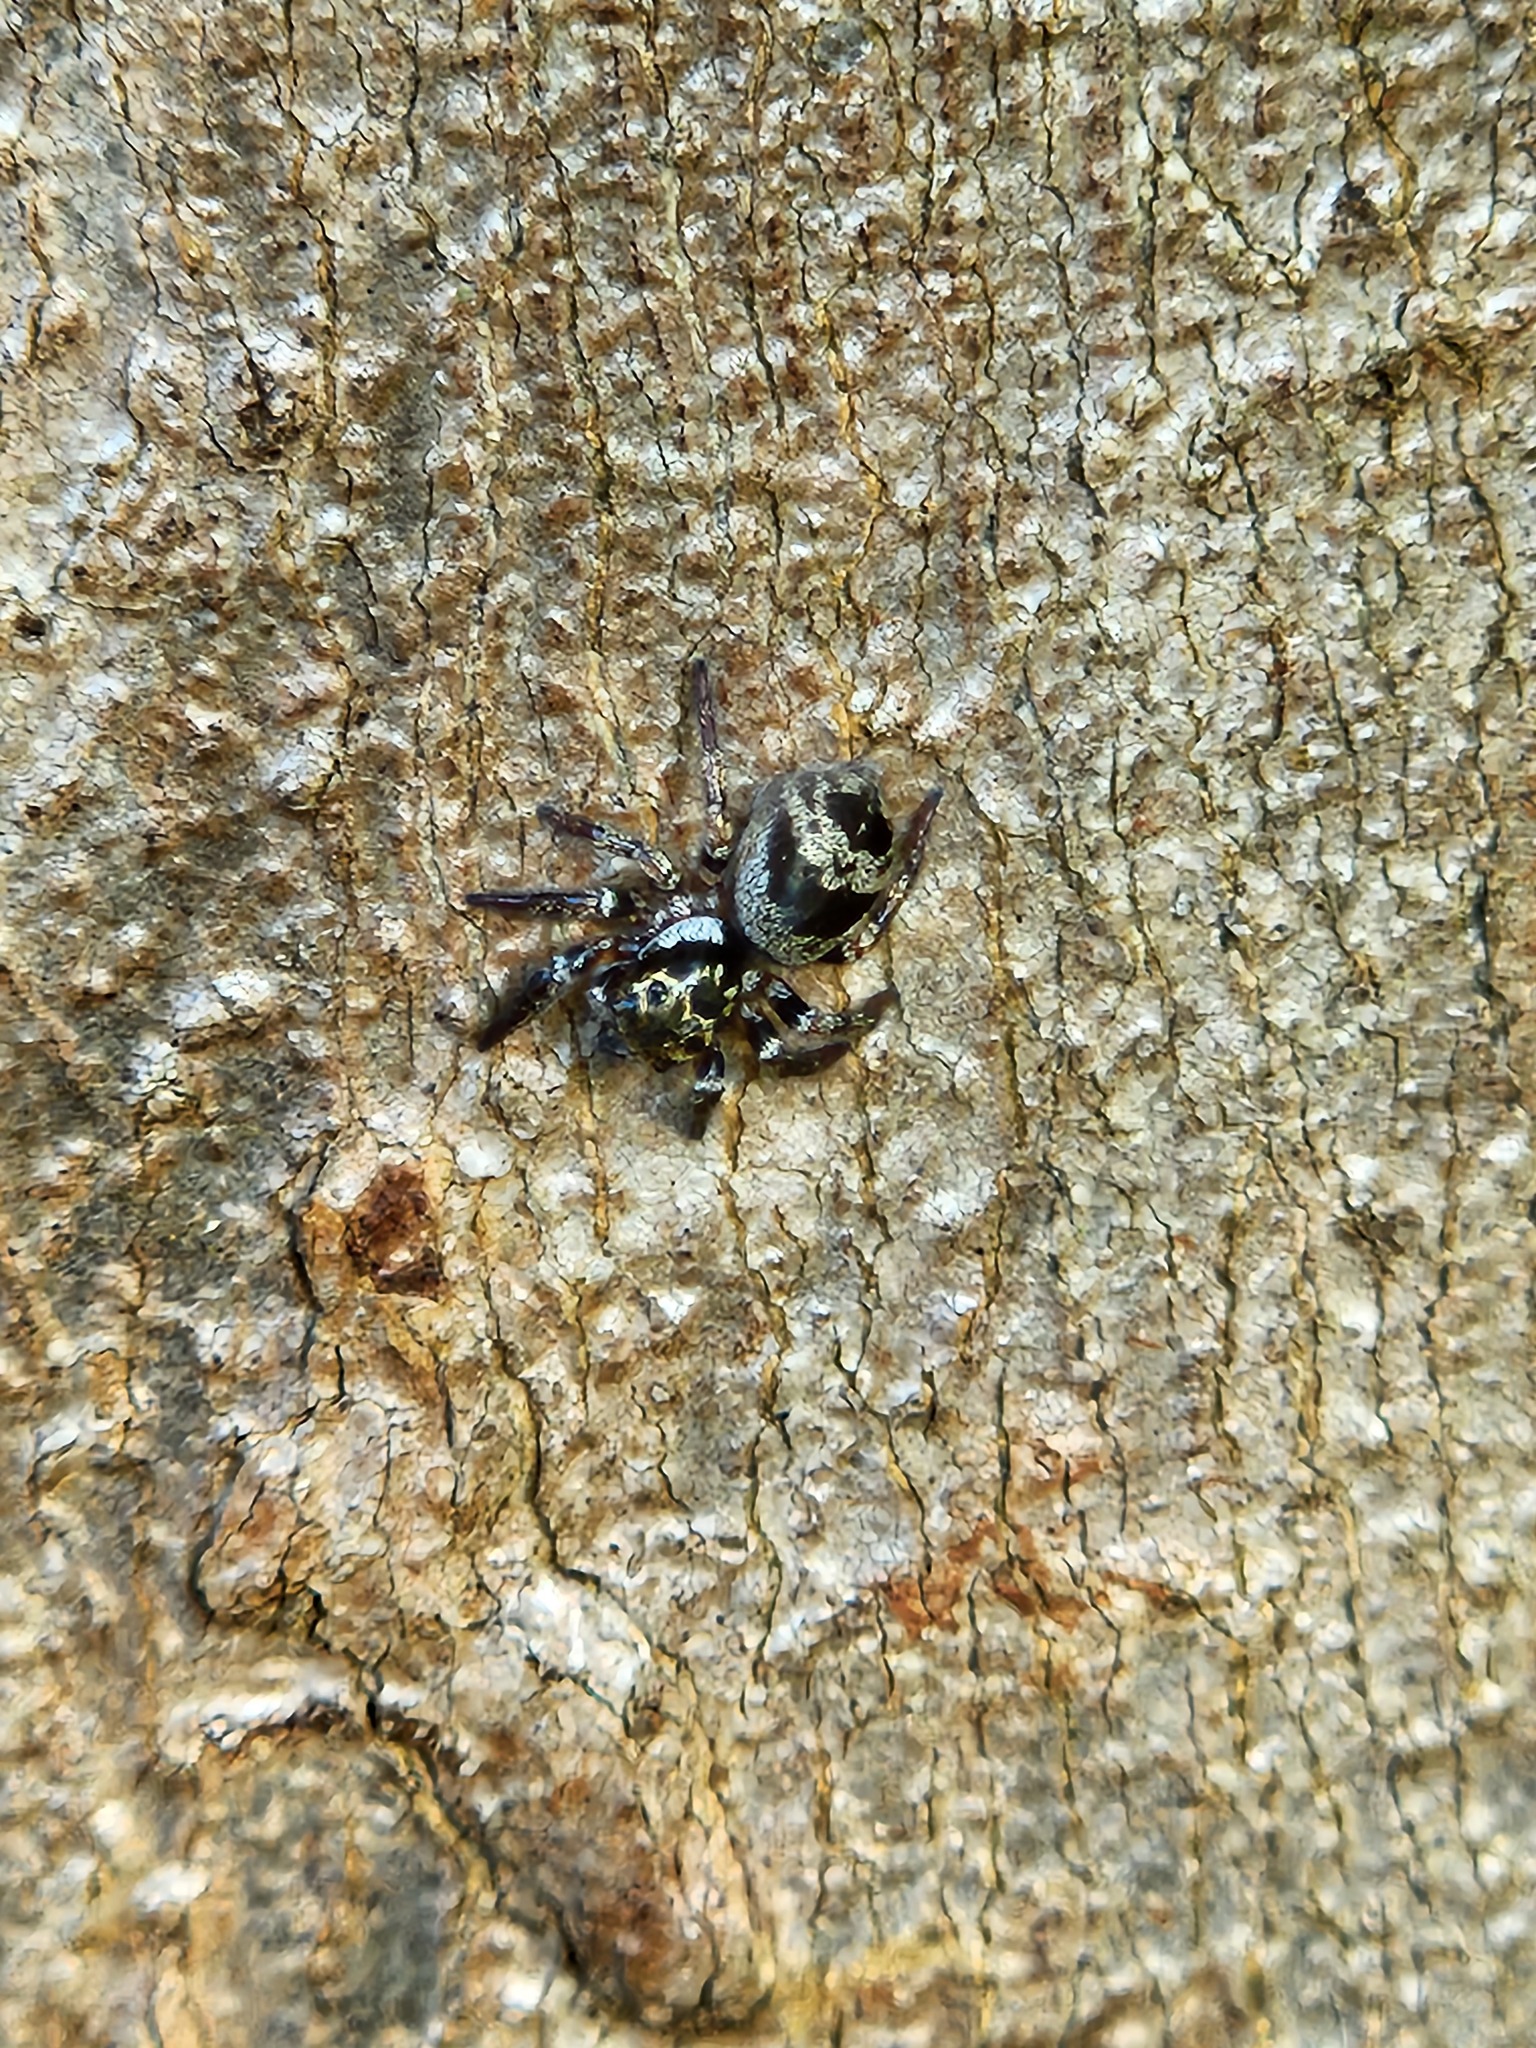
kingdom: Animalia
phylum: Arthropoda
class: Arachnida
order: Araneae
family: Salticidae
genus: Corythalia
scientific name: Corythalia conferta
